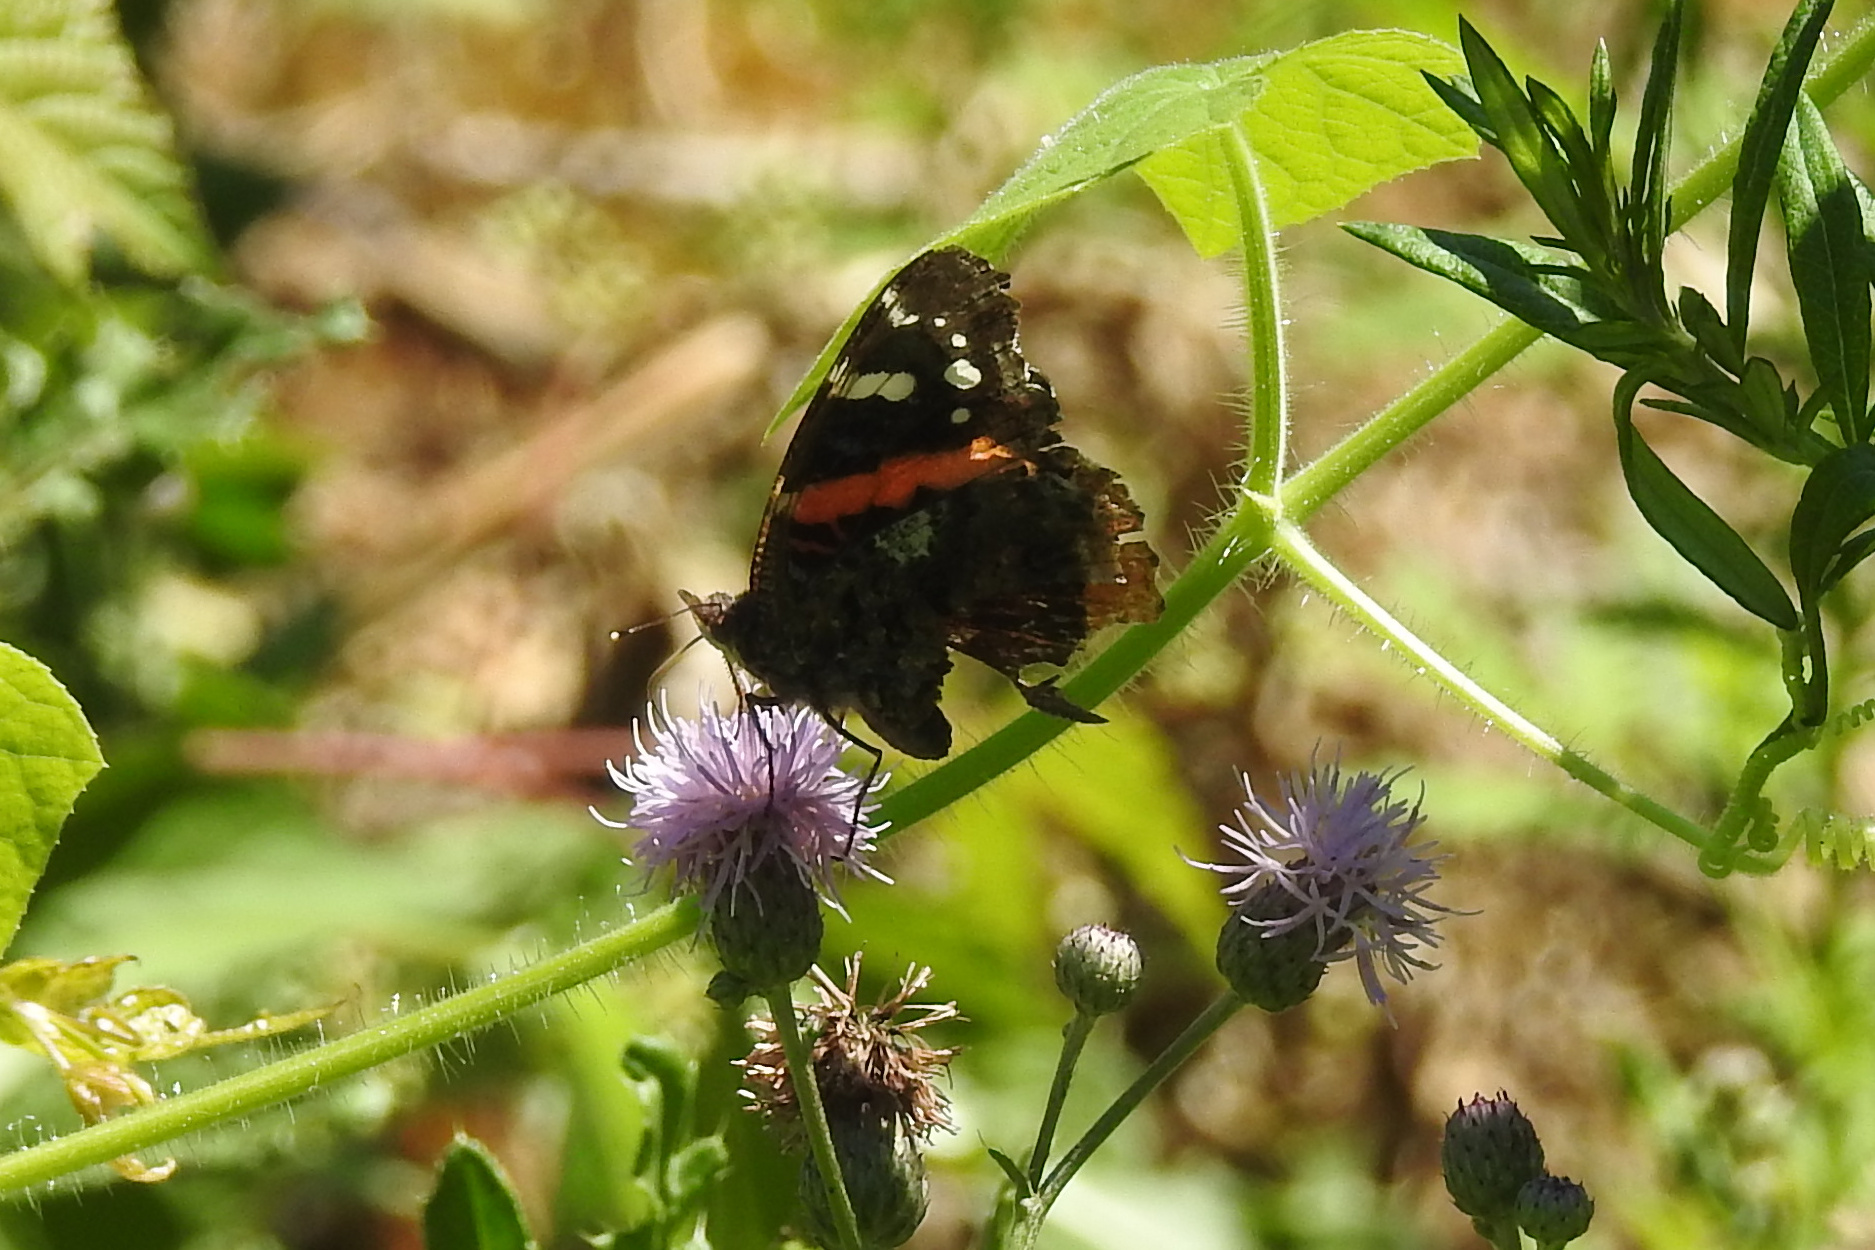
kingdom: Animalia
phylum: Arthropoda
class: Insecta
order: Lepidoptera
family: Nymphalidae
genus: Vanessa
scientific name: Vanessa atalanta
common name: Red admiral
